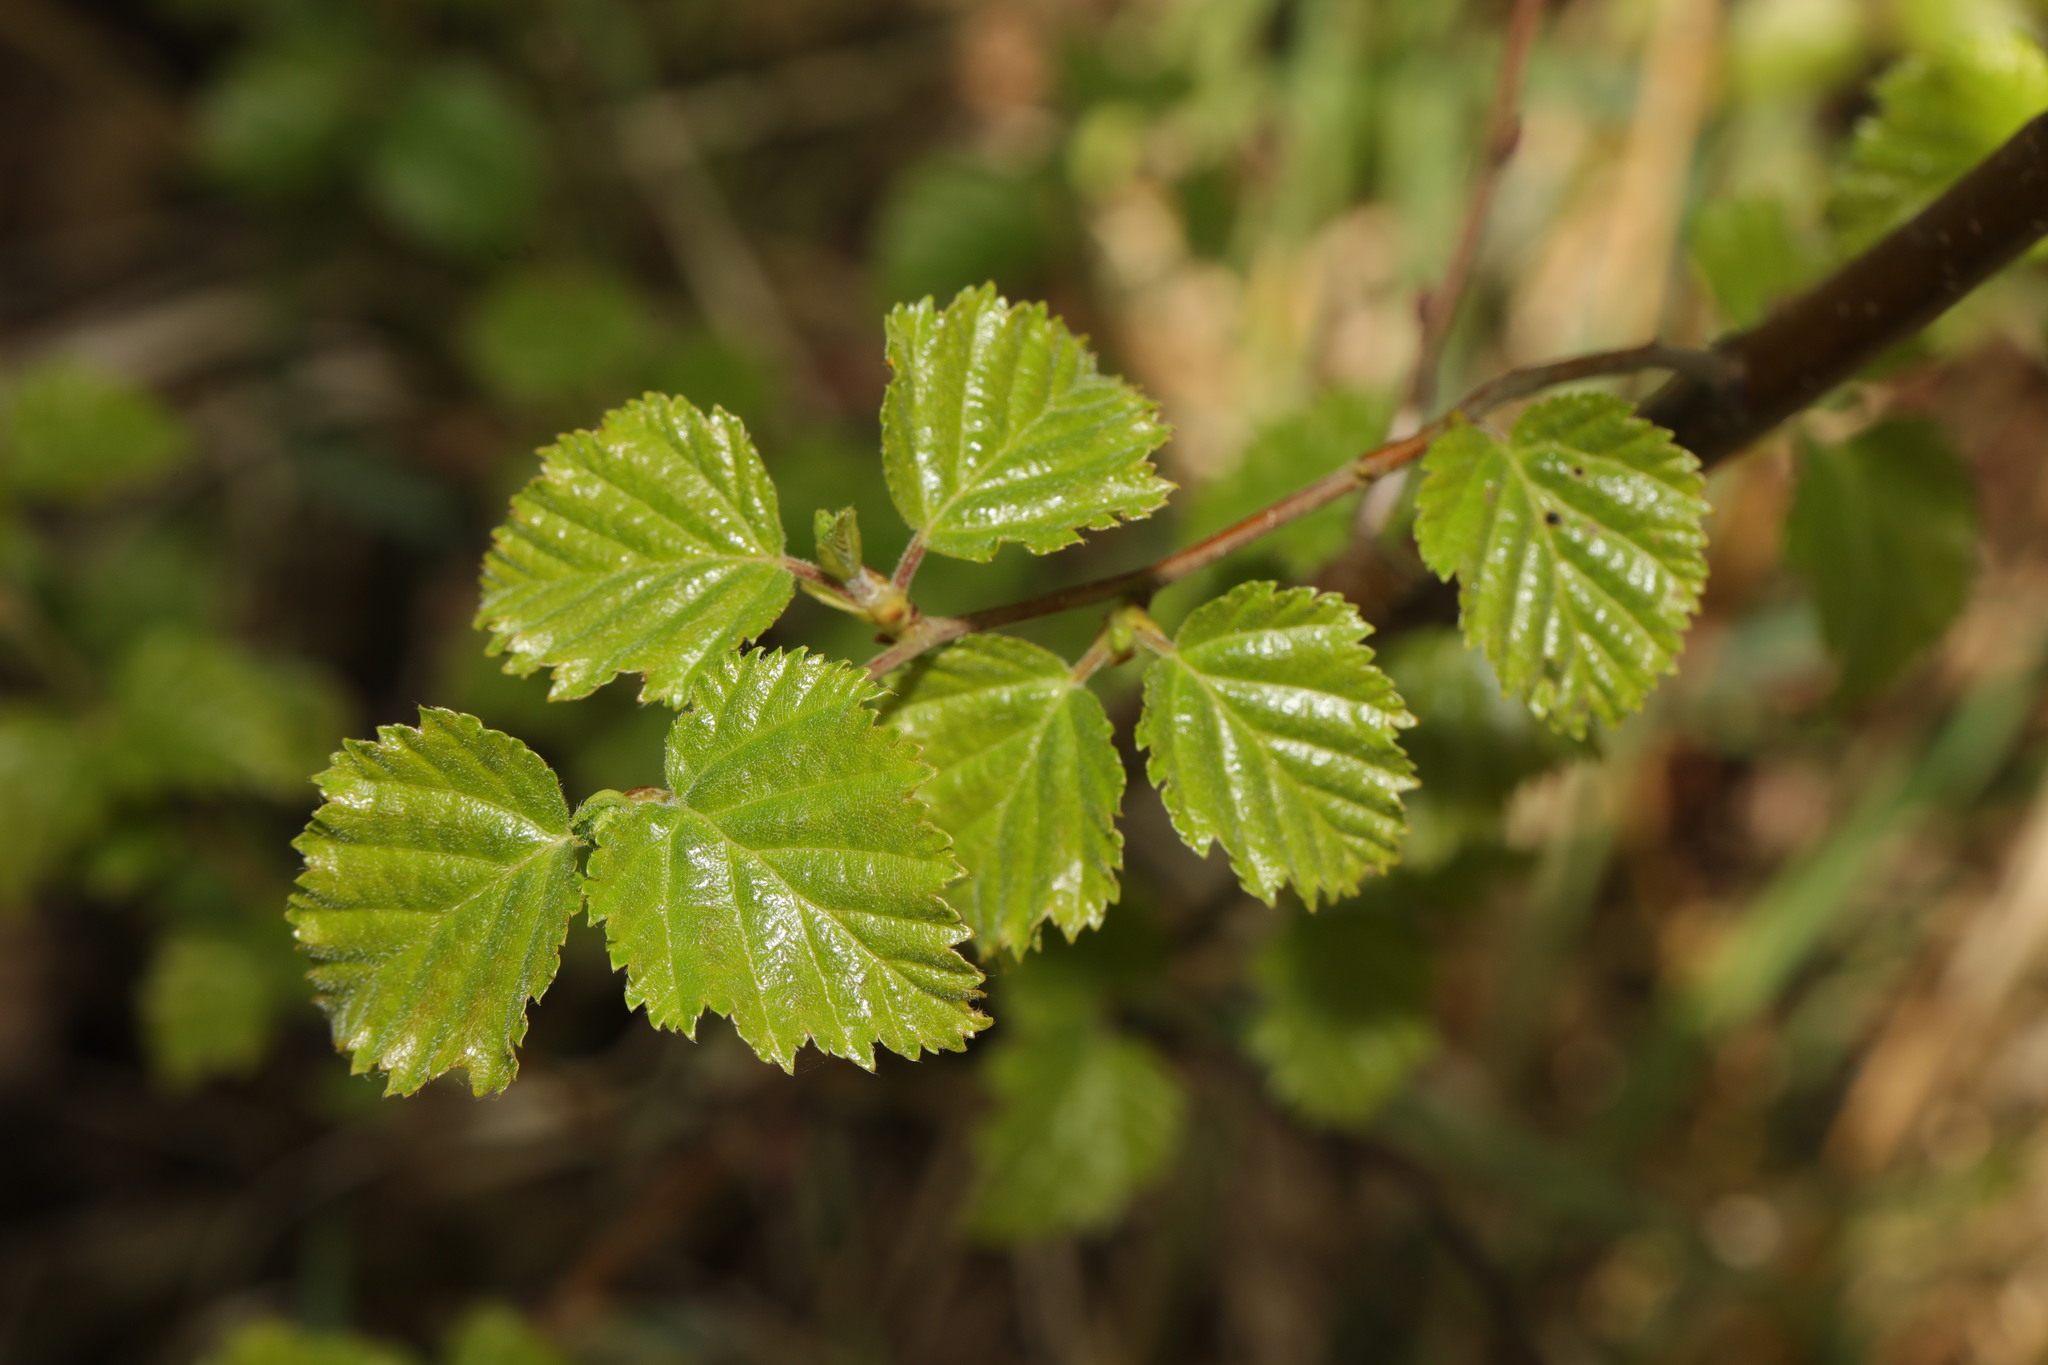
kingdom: Plantae
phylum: Tracheophyta
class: Magnoliopsida
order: Fagales
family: Betulaceae
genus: Betula
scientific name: Betula pubescens
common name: Downy birch
